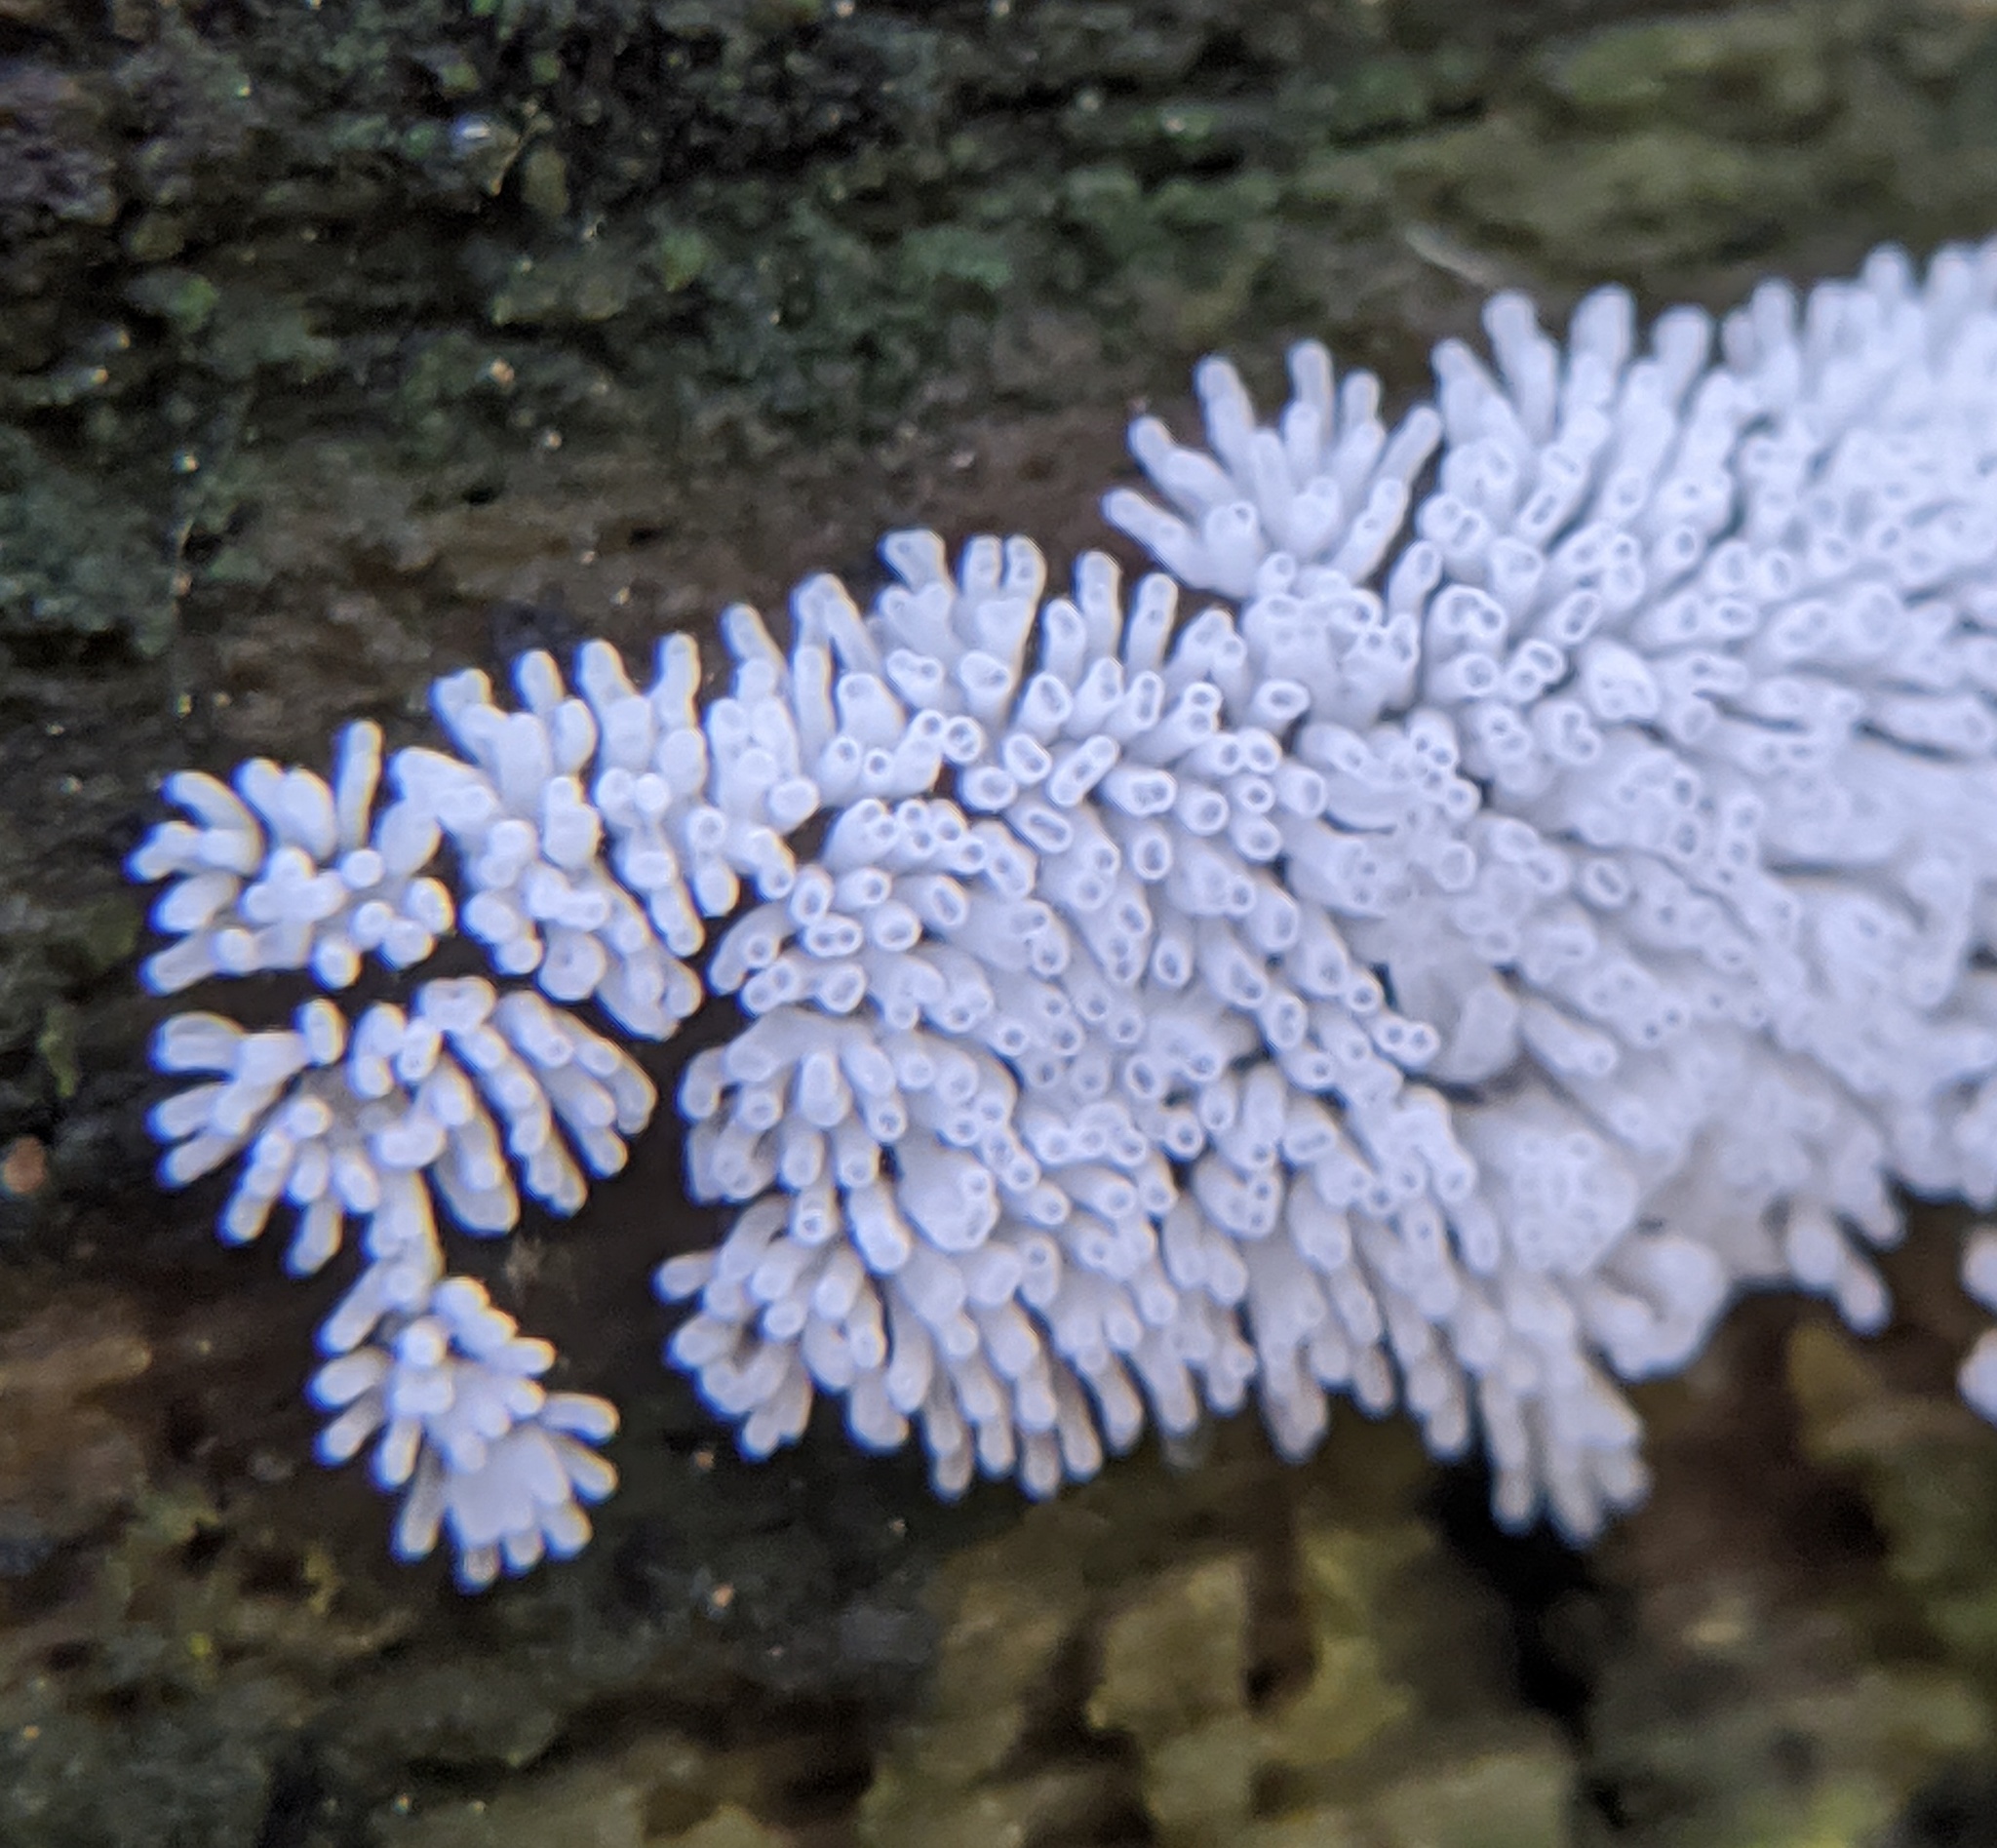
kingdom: Protozoa
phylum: Mycetozoa
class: Protosteliomycetes
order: Ceratiomyxales
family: Ceratiomyxaceae
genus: Ceratiomyxa
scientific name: Ceratiomyxa fruticulosa
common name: Honeycomb coral slime mold
